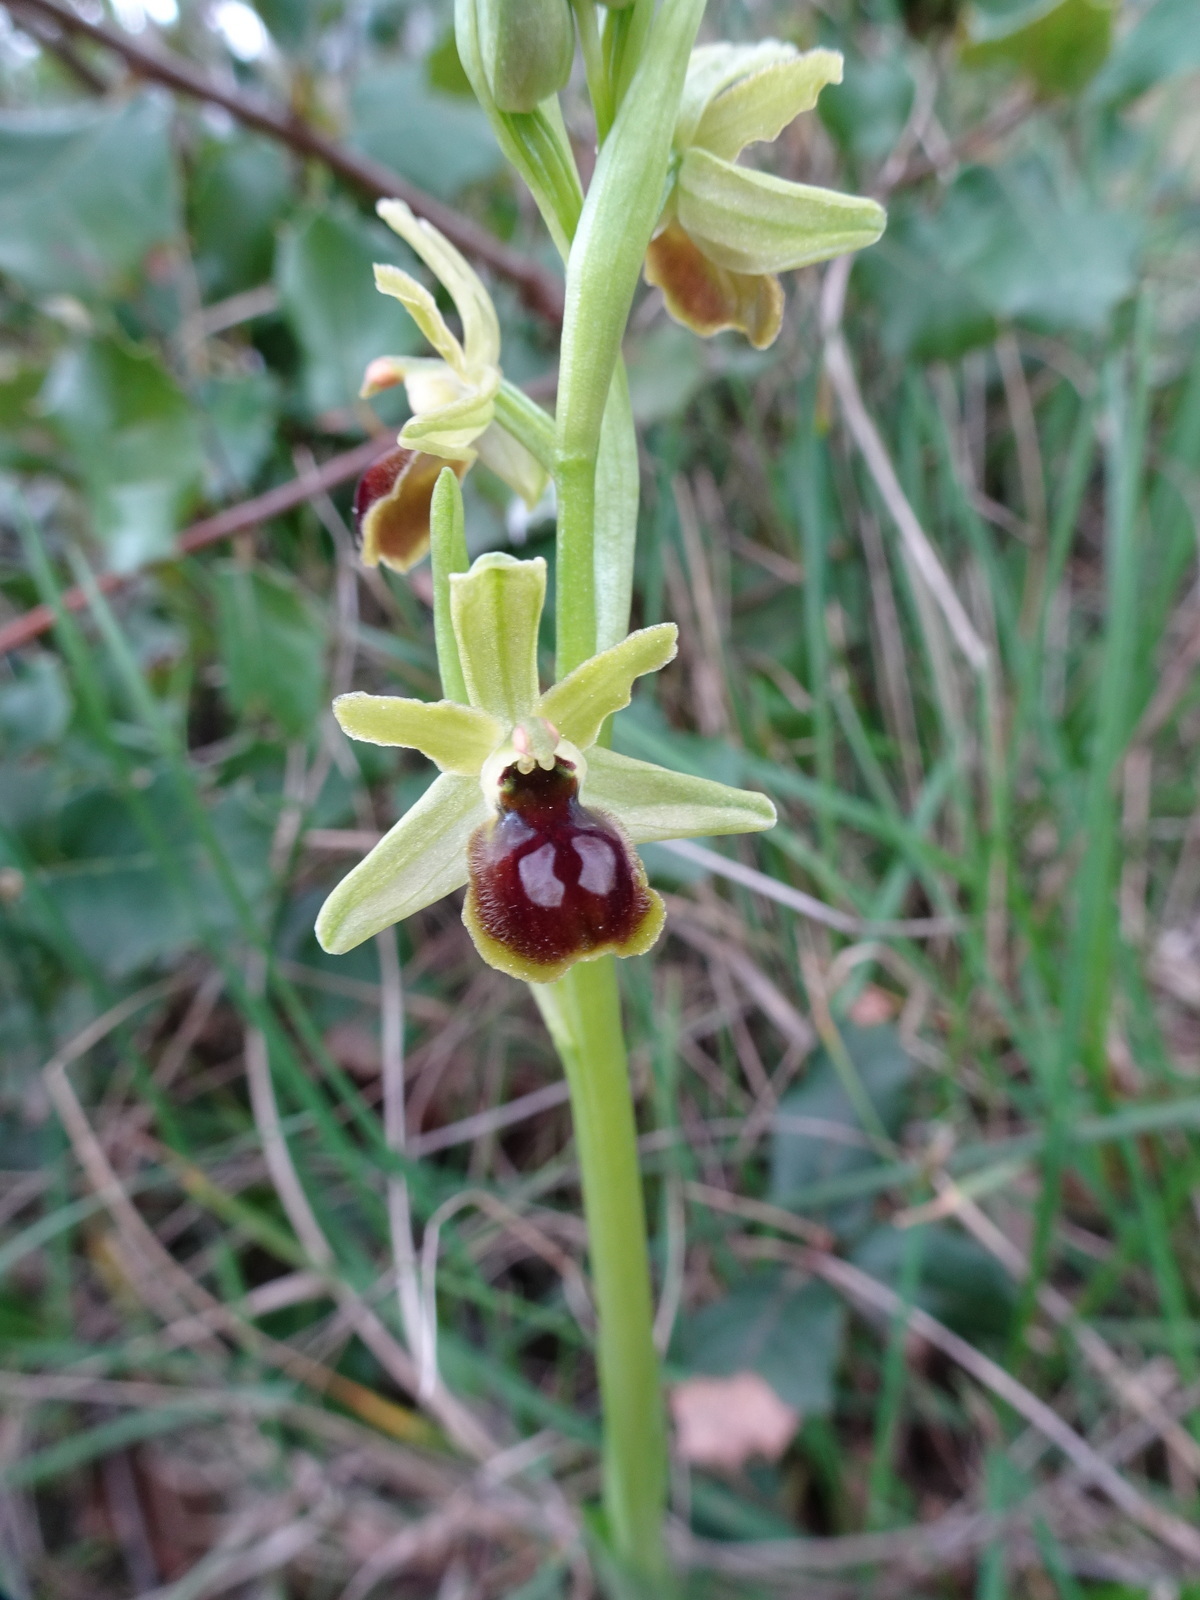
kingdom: Plantae
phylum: Tracheophyta
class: Liliopsida
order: Asparagales
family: Orchidaceae
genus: Ophrys
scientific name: Ophrys araneola
